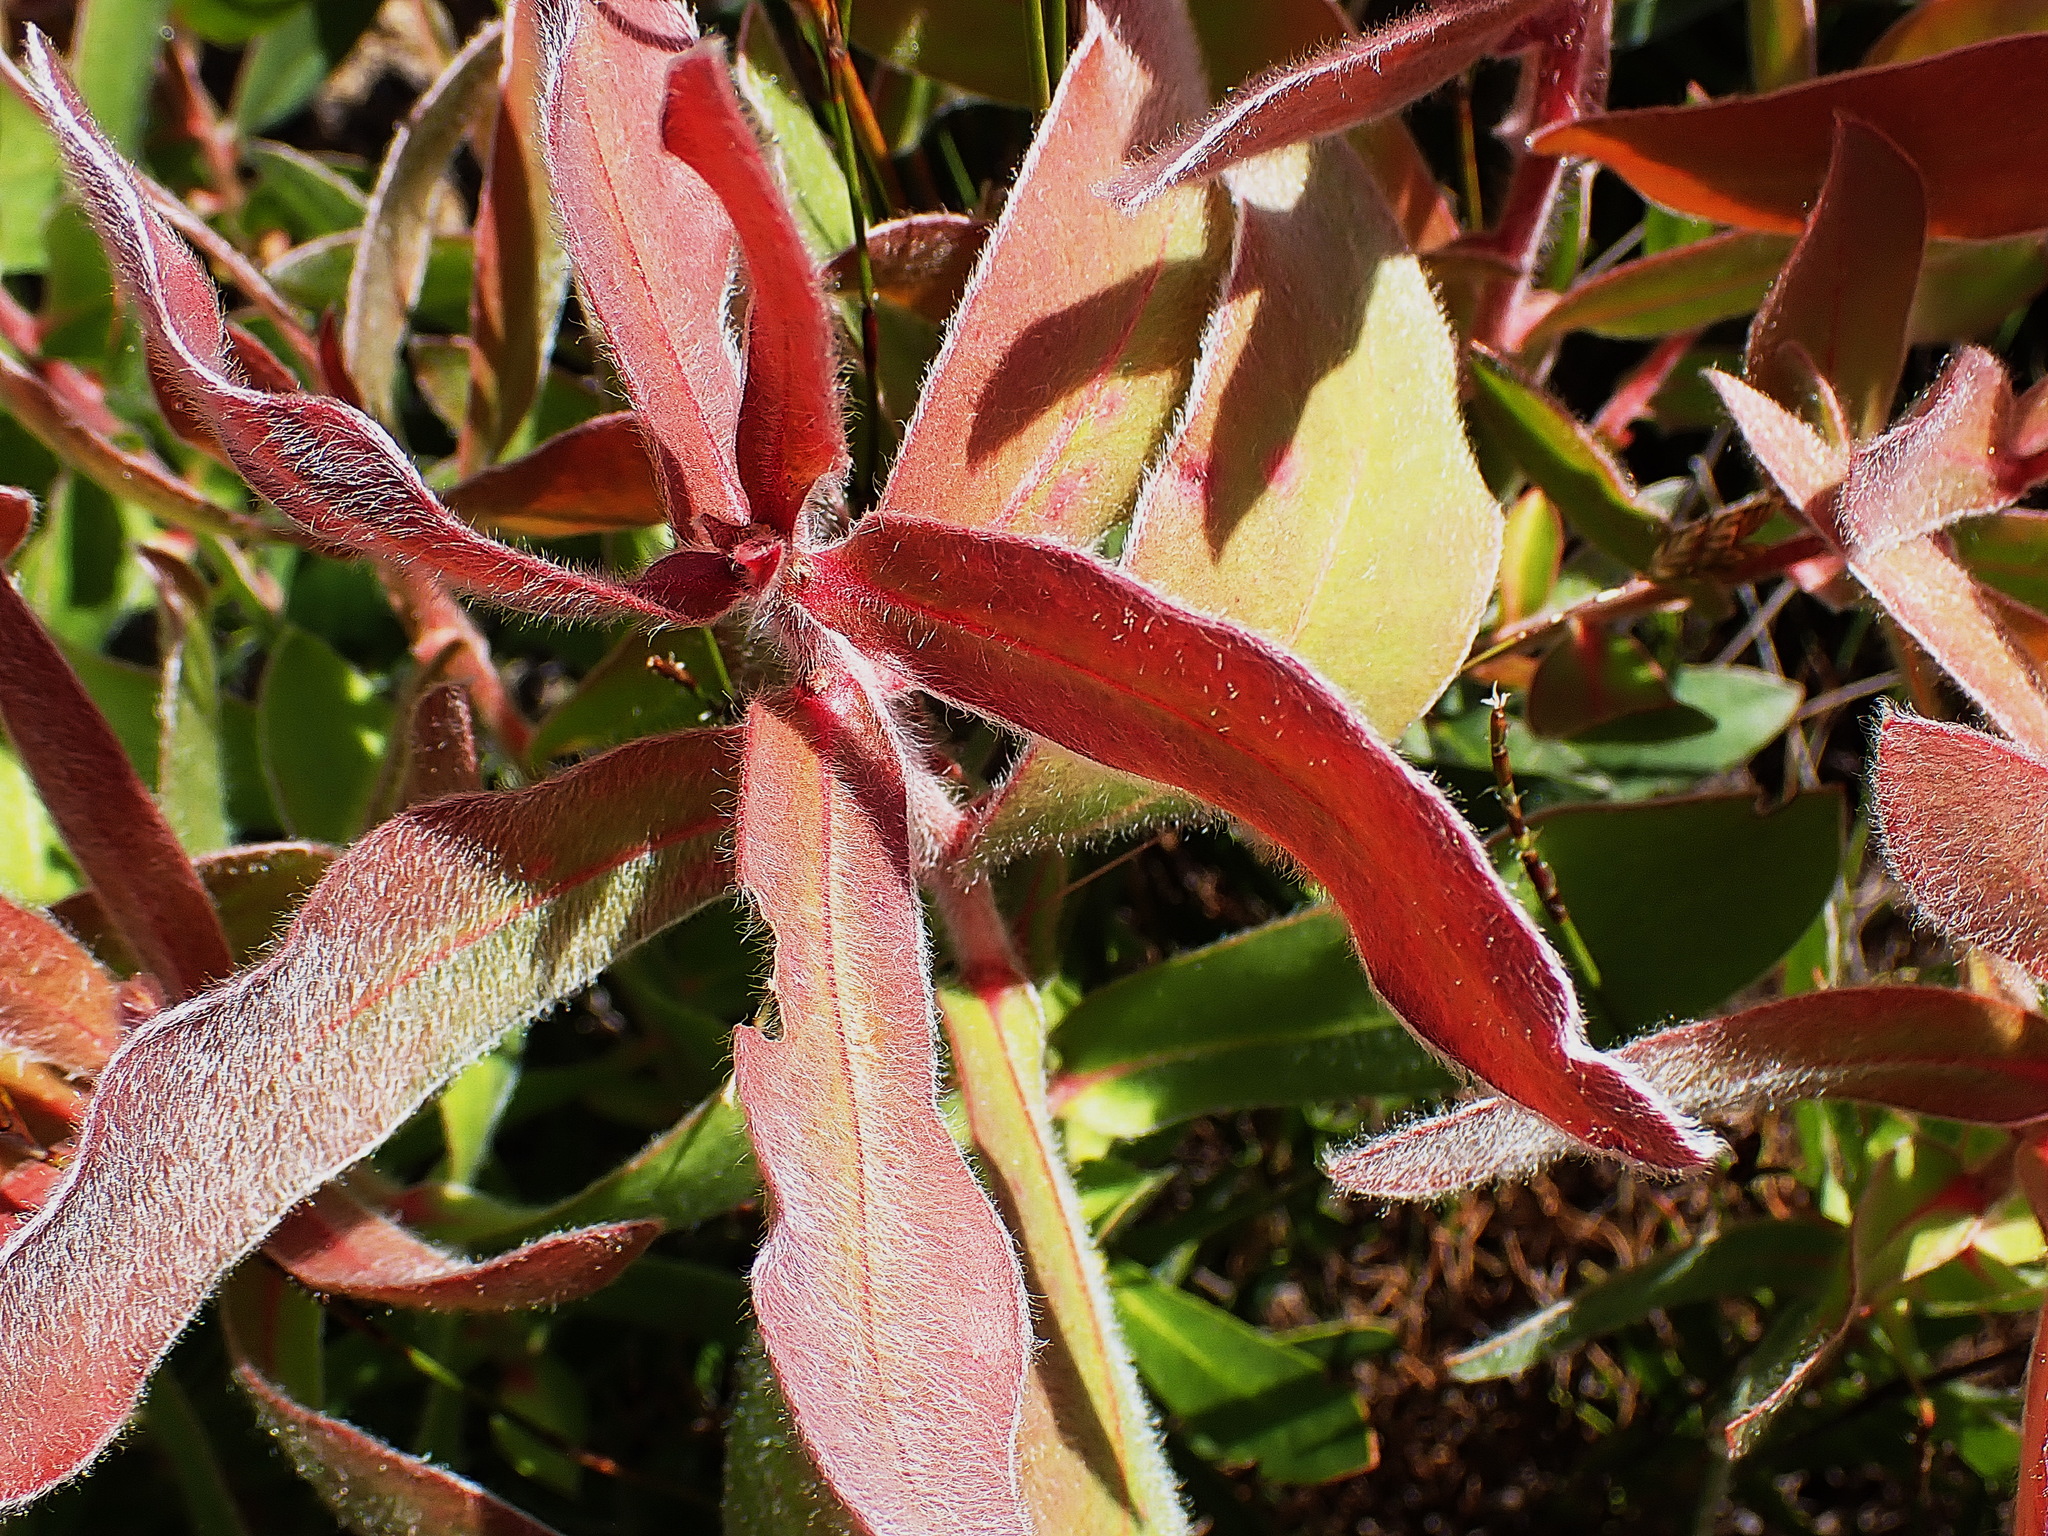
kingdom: Plantae
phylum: Tracheophyta
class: Magnoliopsida
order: Proteales
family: Proteaceae
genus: Protea
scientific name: Protea aurea
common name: Shuttlecock sugarbush
